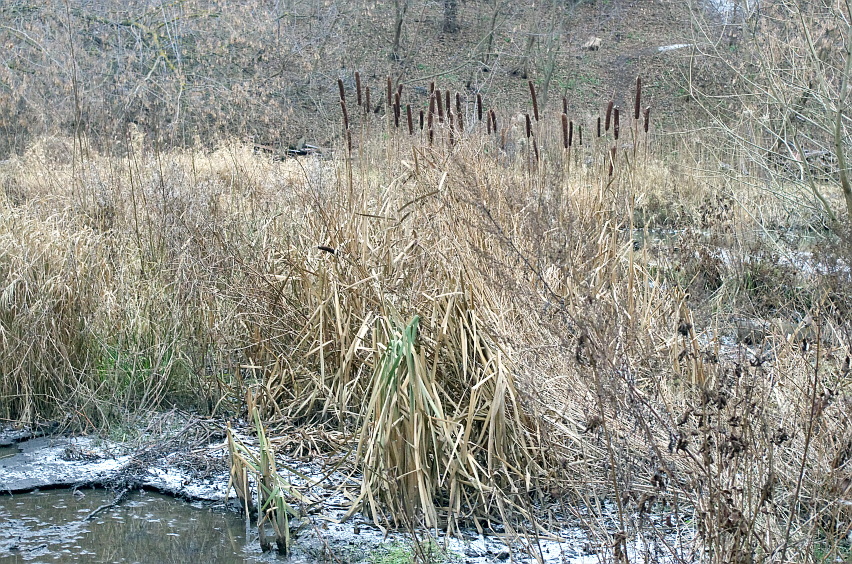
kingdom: Plantae
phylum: Tracheophyta
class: Liliopsida
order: Poales
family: Typhaceae
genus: Typha
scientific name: Typha latifolia
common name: Broadleaf cattail
